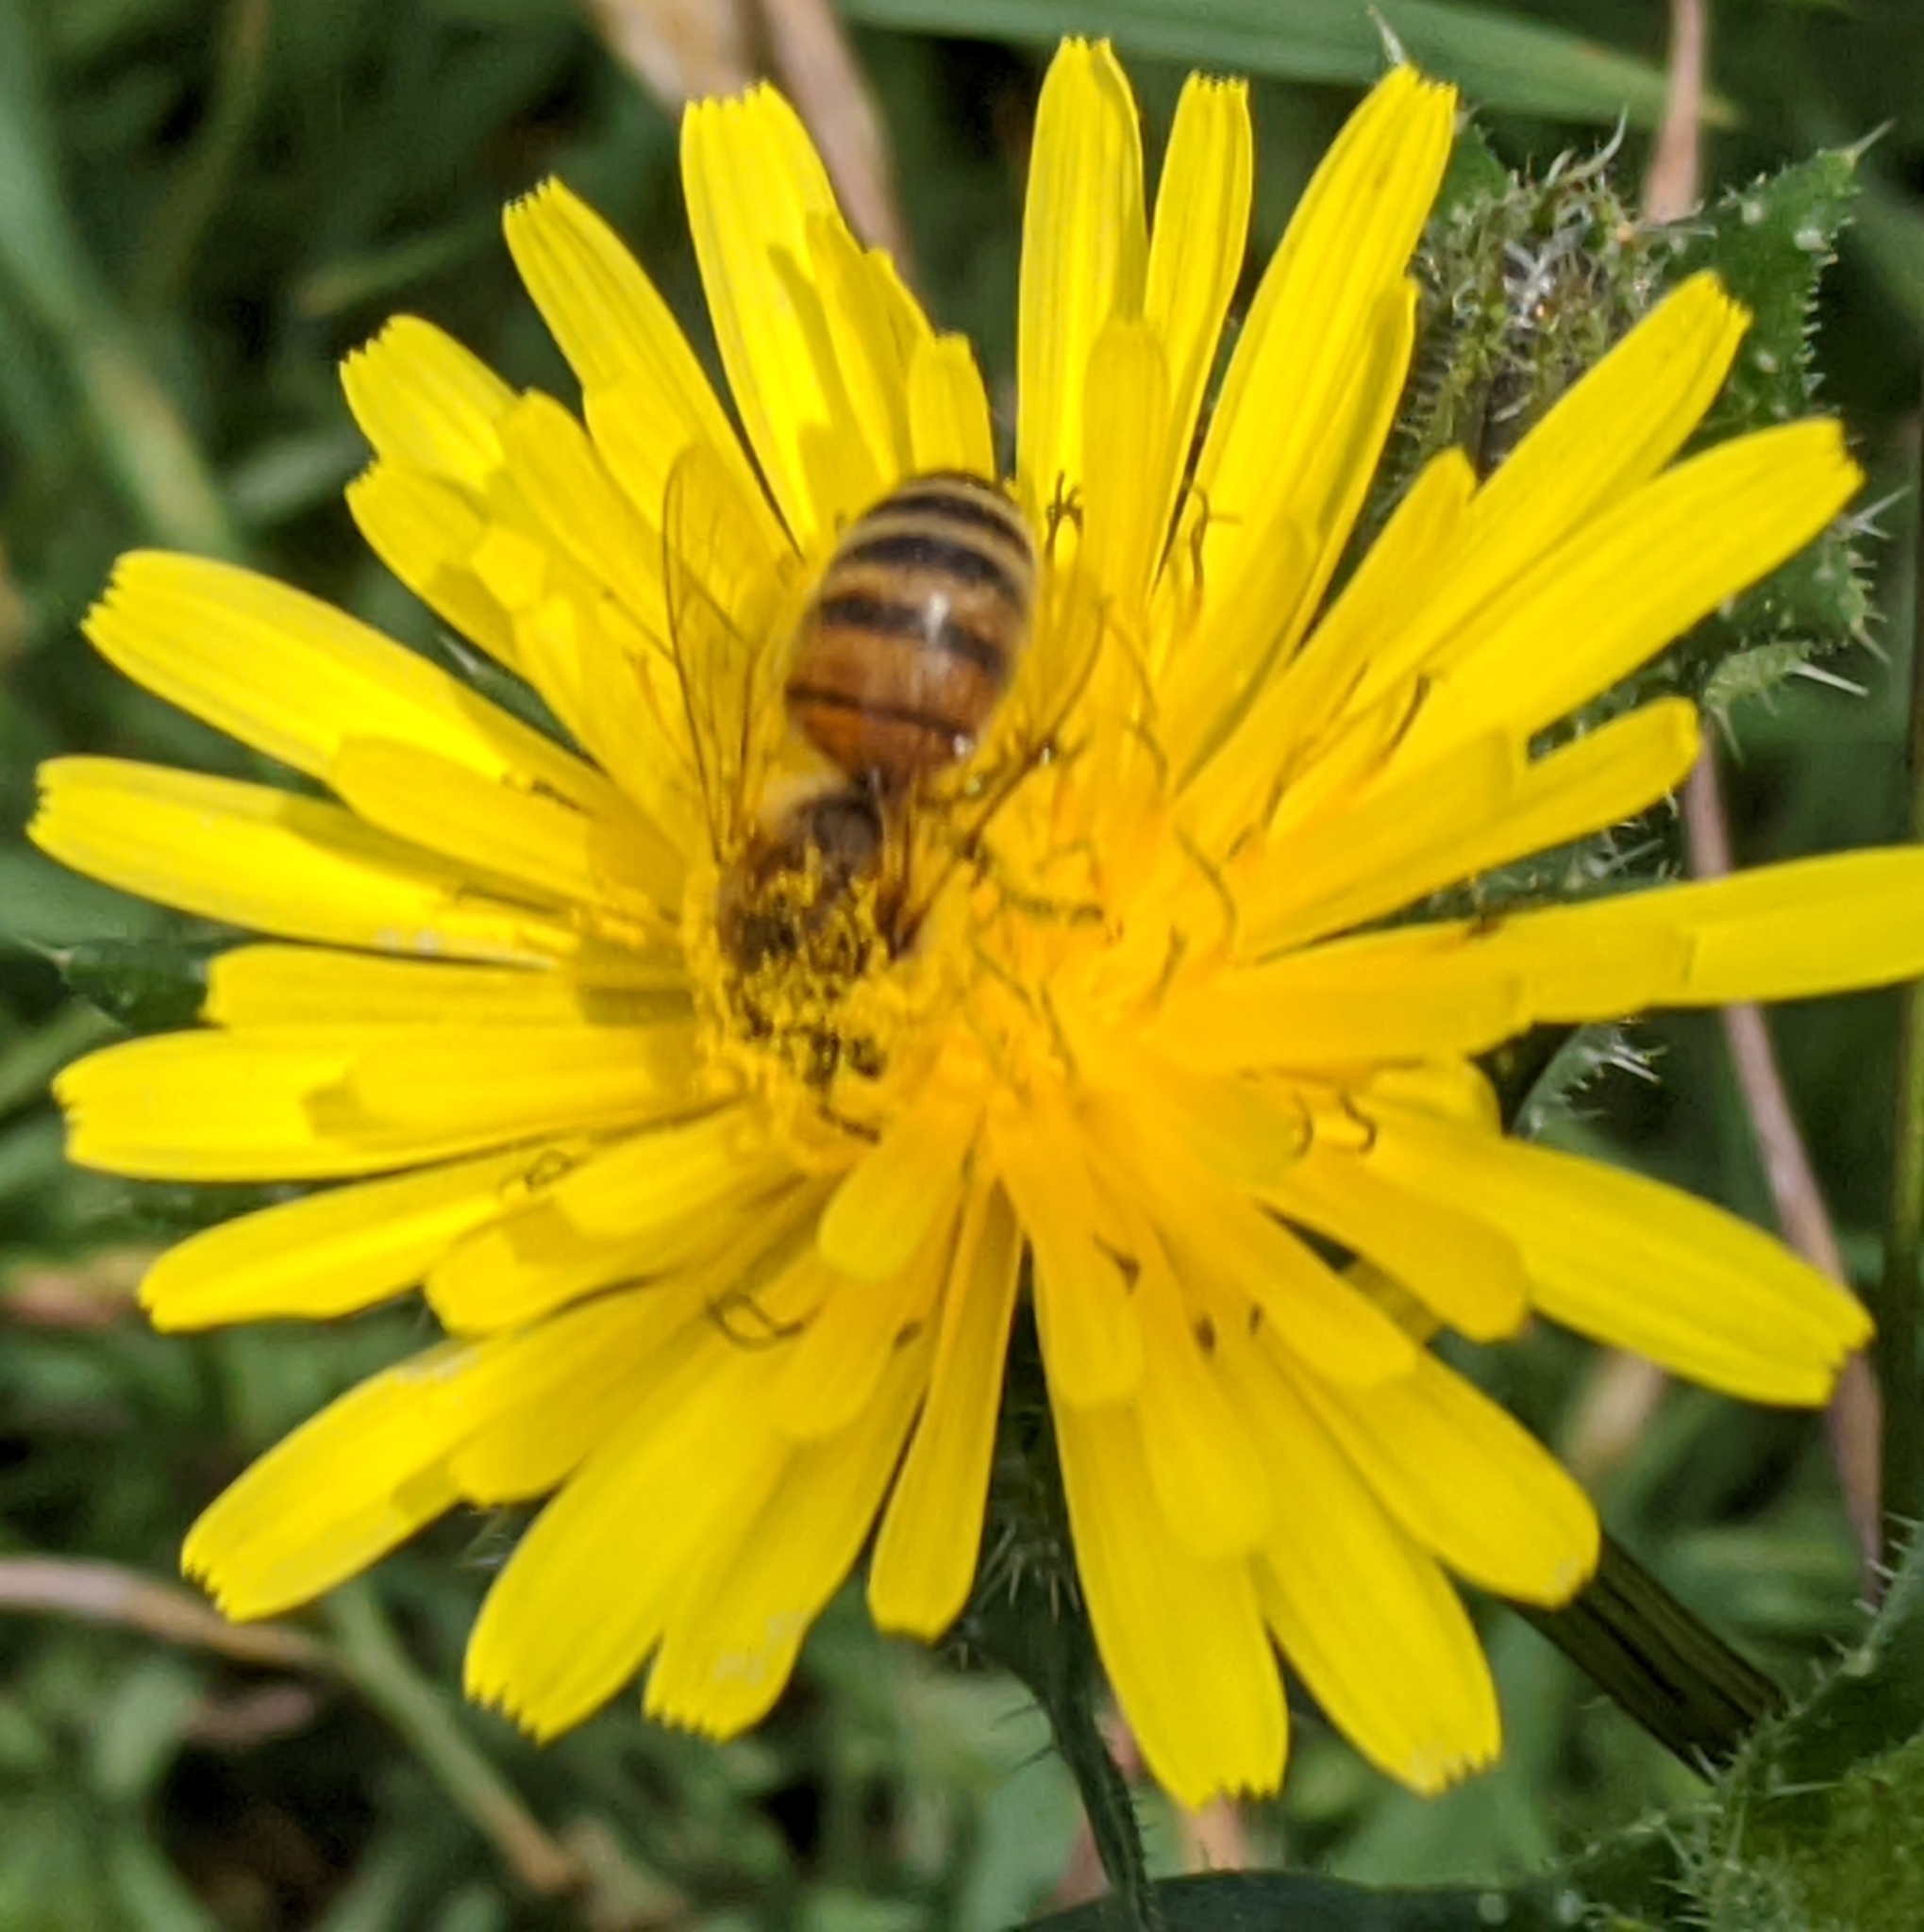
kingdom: Animalia
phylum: Arthropoda
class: Insecta
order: Hymenoptera
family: Apidae
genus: Apis
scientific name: Apis mellifera
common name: Honey bee
